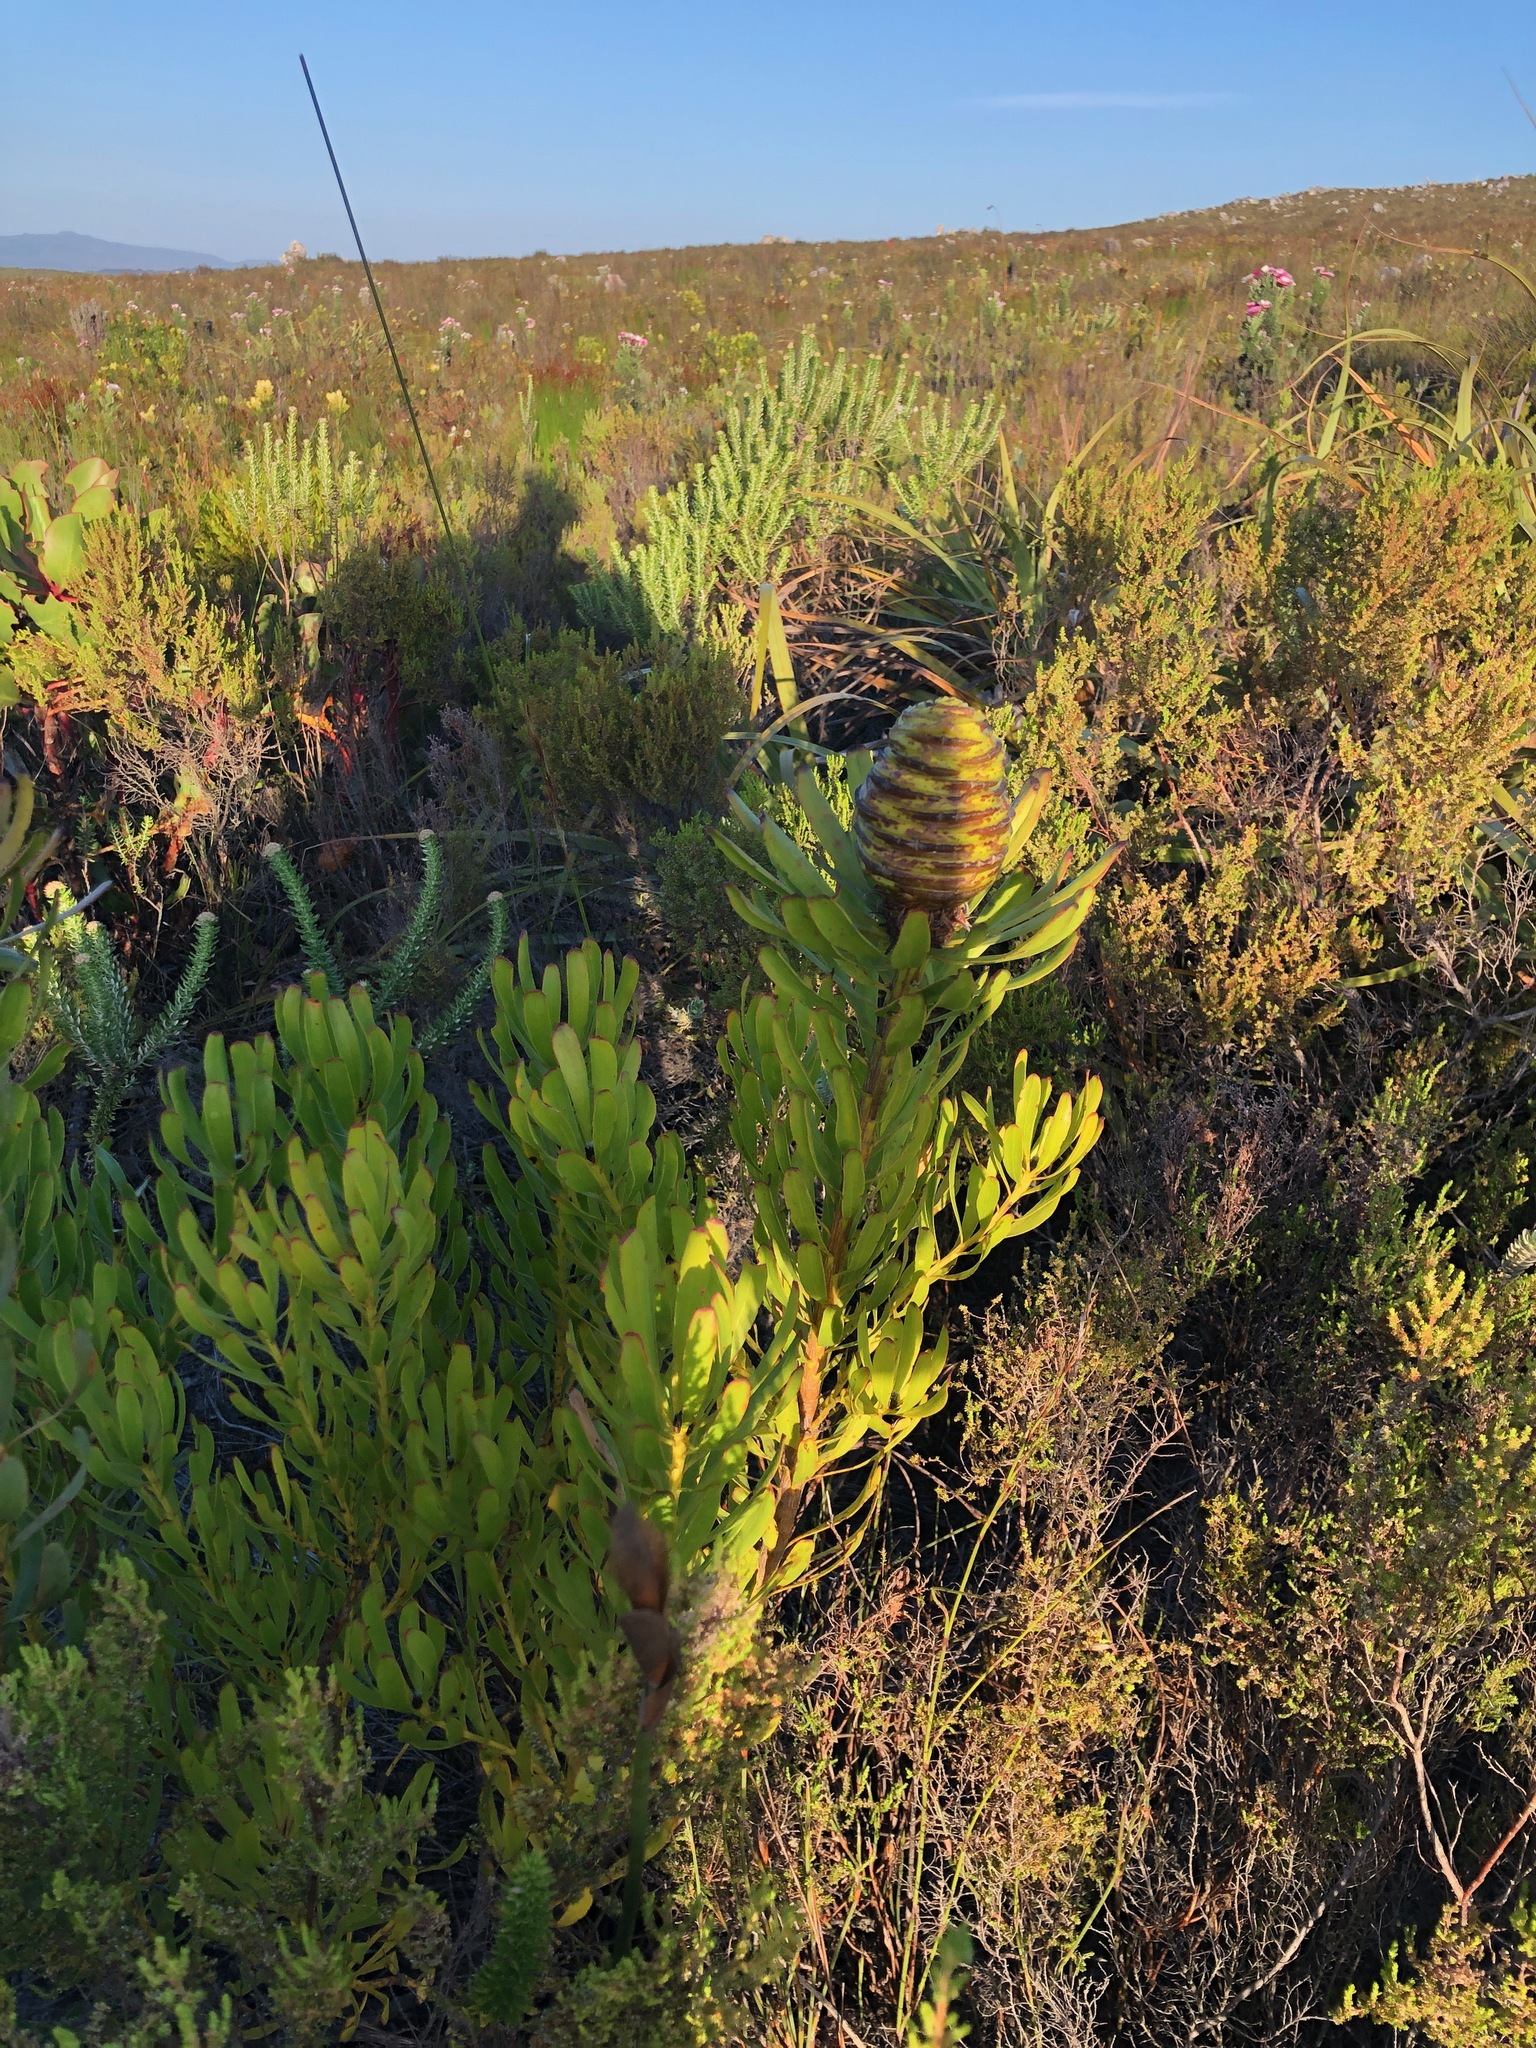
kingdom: Plantae
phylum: Tracheophyta
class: Magnoliopsida
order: Proteales
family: Proteaceae
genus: Leucadendron
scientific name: Leucadendron platyspermum
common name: Plate-seed conebush
